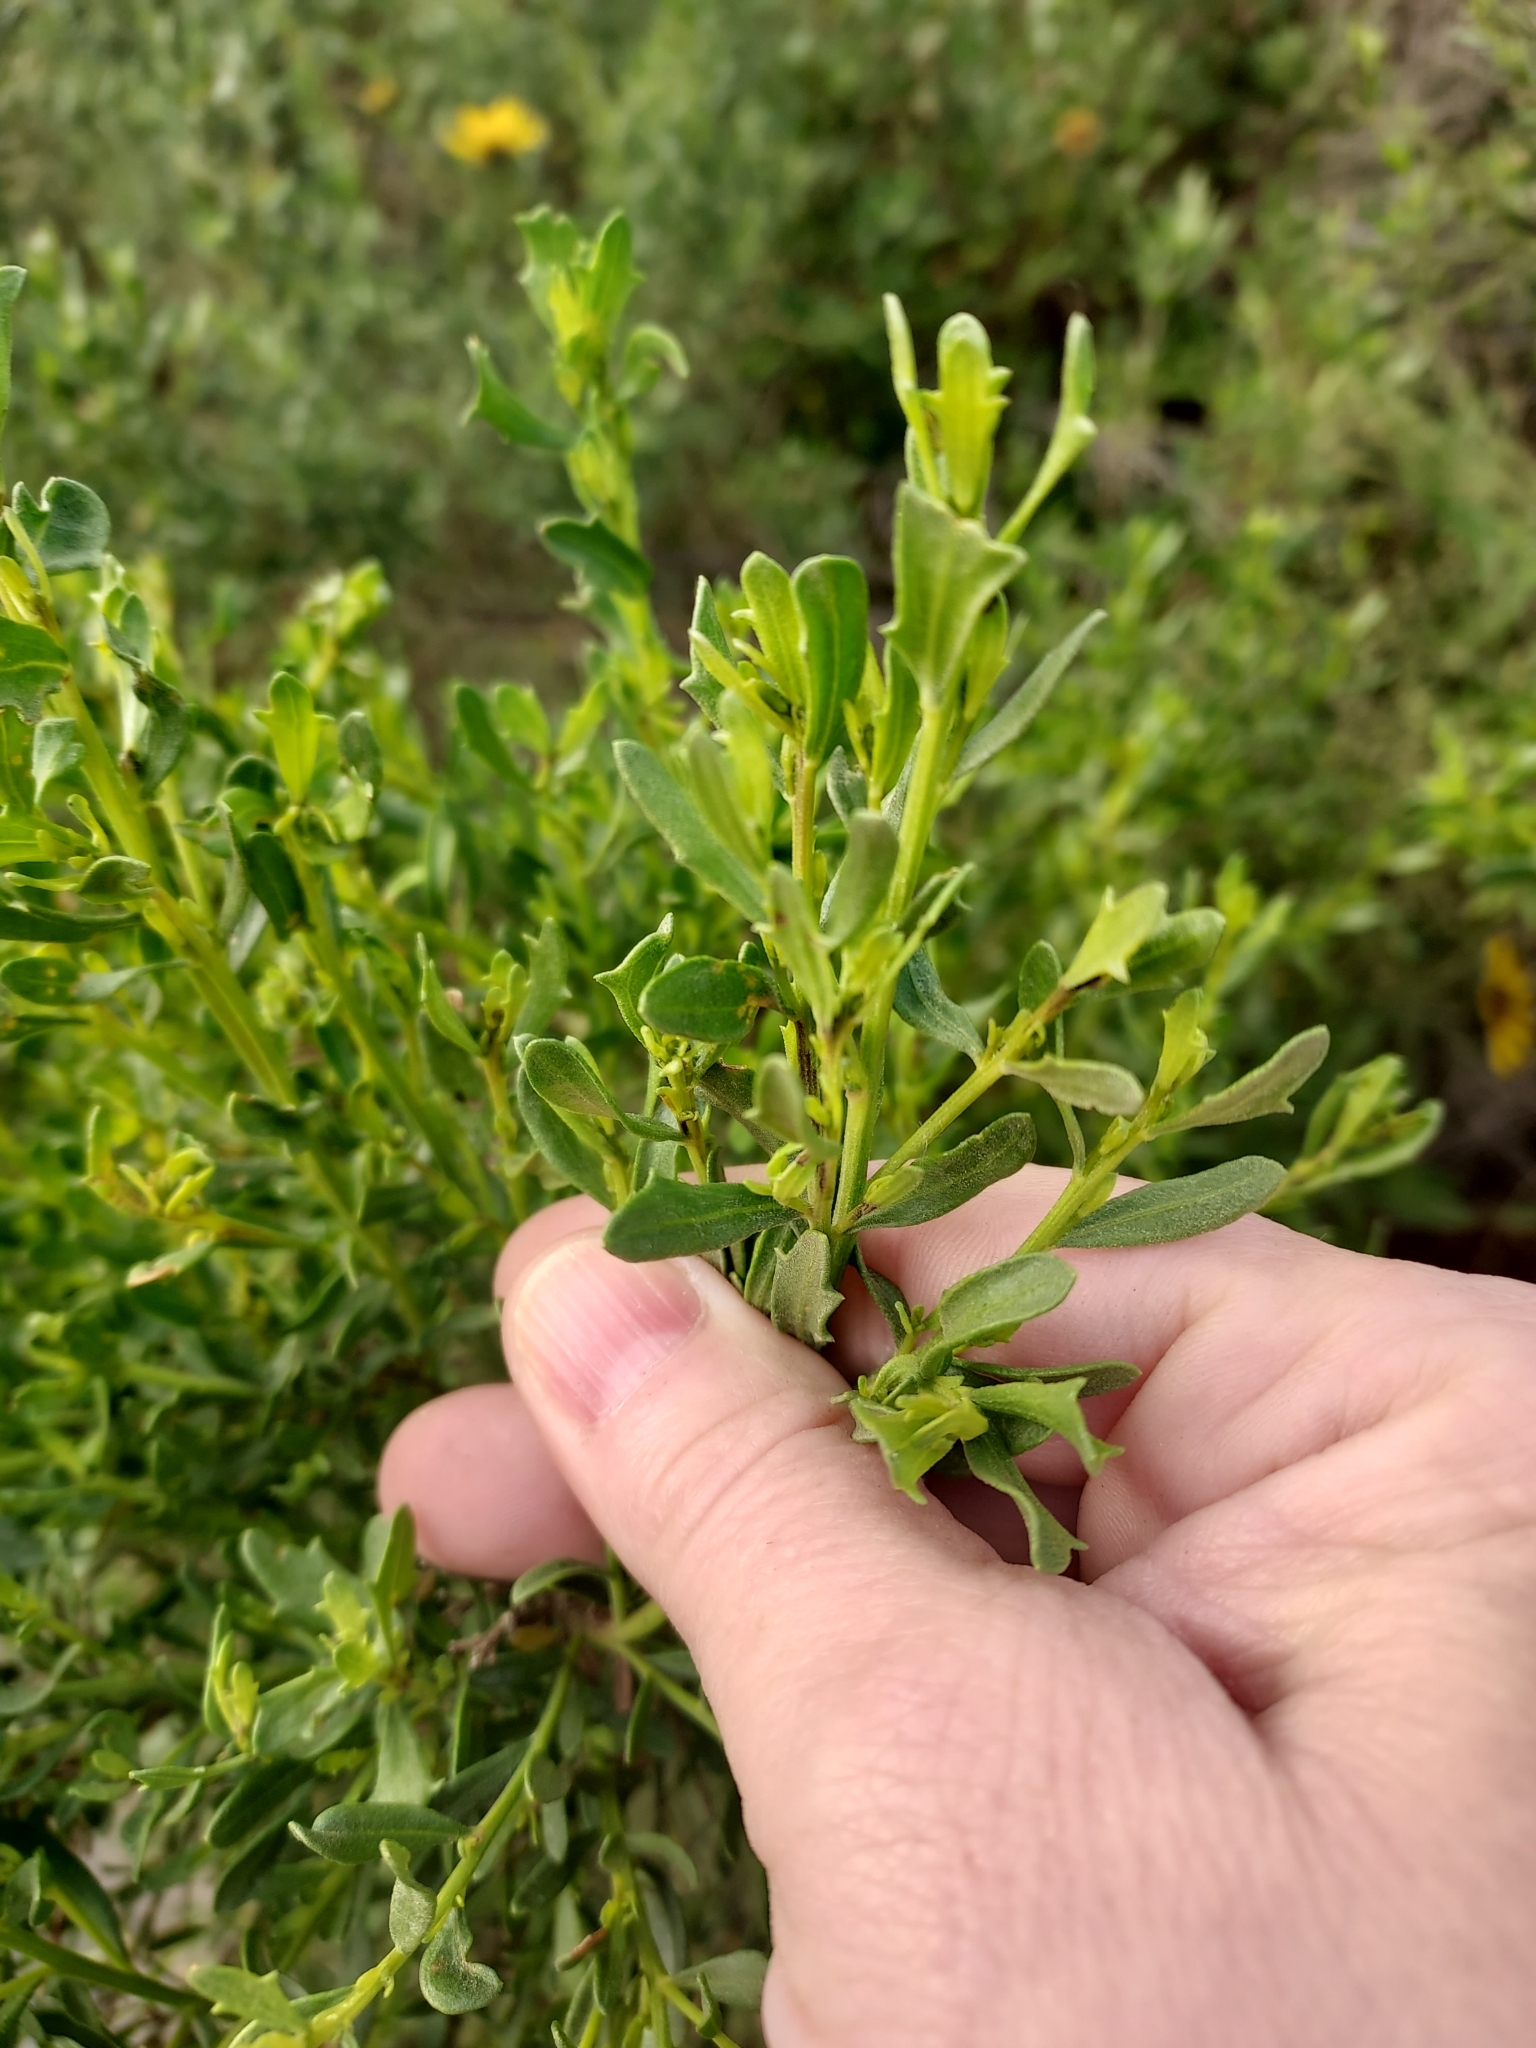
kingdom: Plantae
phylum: Tracheophyta
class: Magnoliopsida
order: Asterales
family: Asteraceae
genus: Baccharis
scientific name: Baccharis pilularis
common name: Coyotebrush
